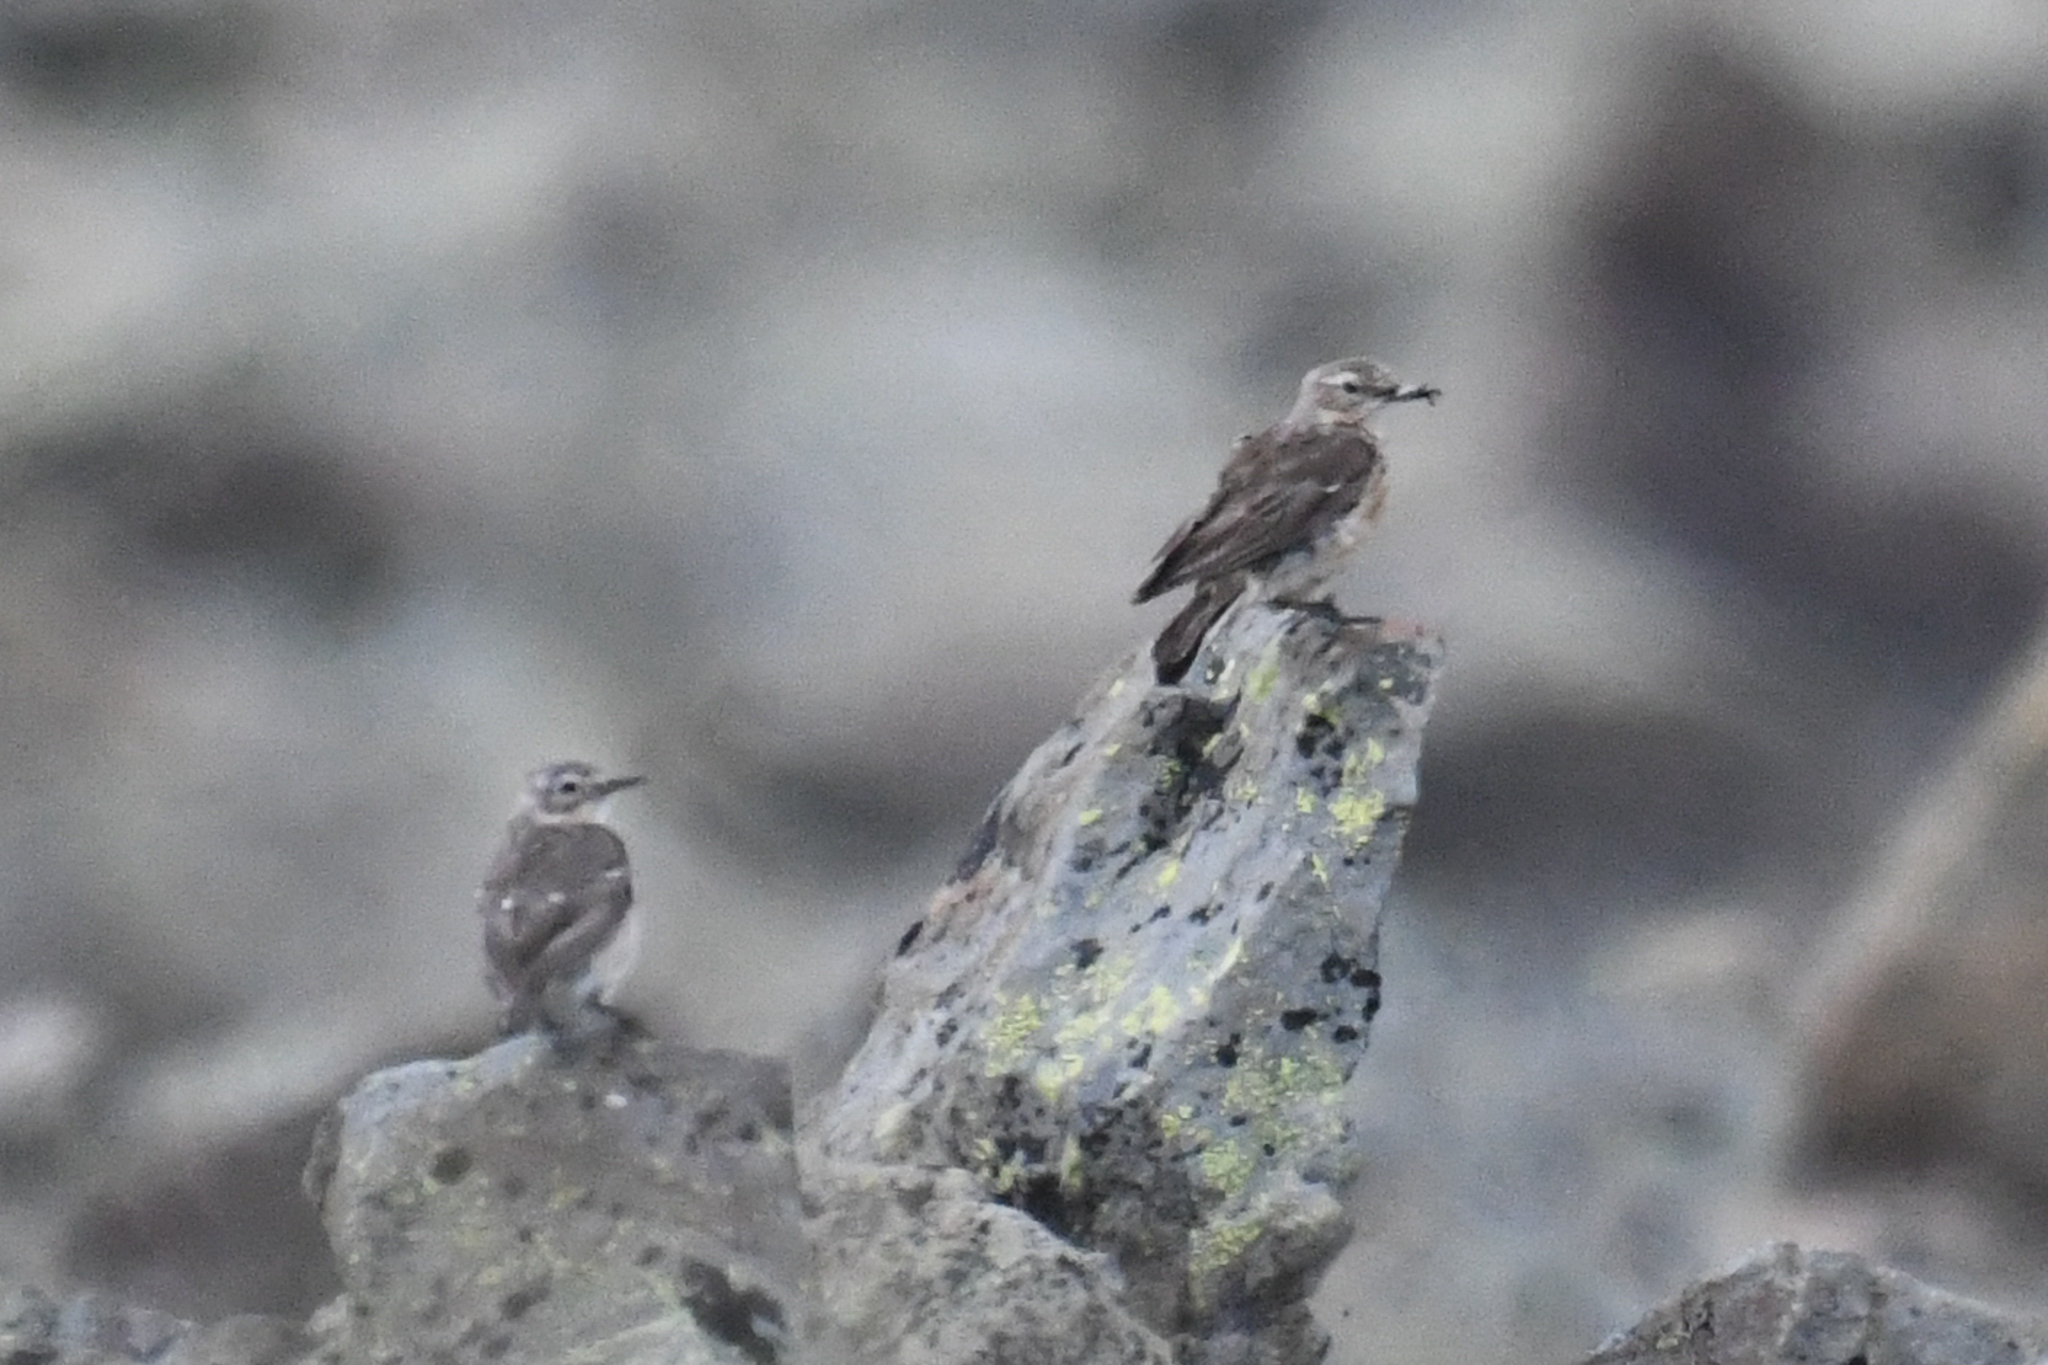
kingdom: Animalia
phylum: Chordata
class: Aves
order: Passeriformes
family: Alaudidae
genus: Eremophila
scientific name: Eremophila alpestris
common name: Horned lark
